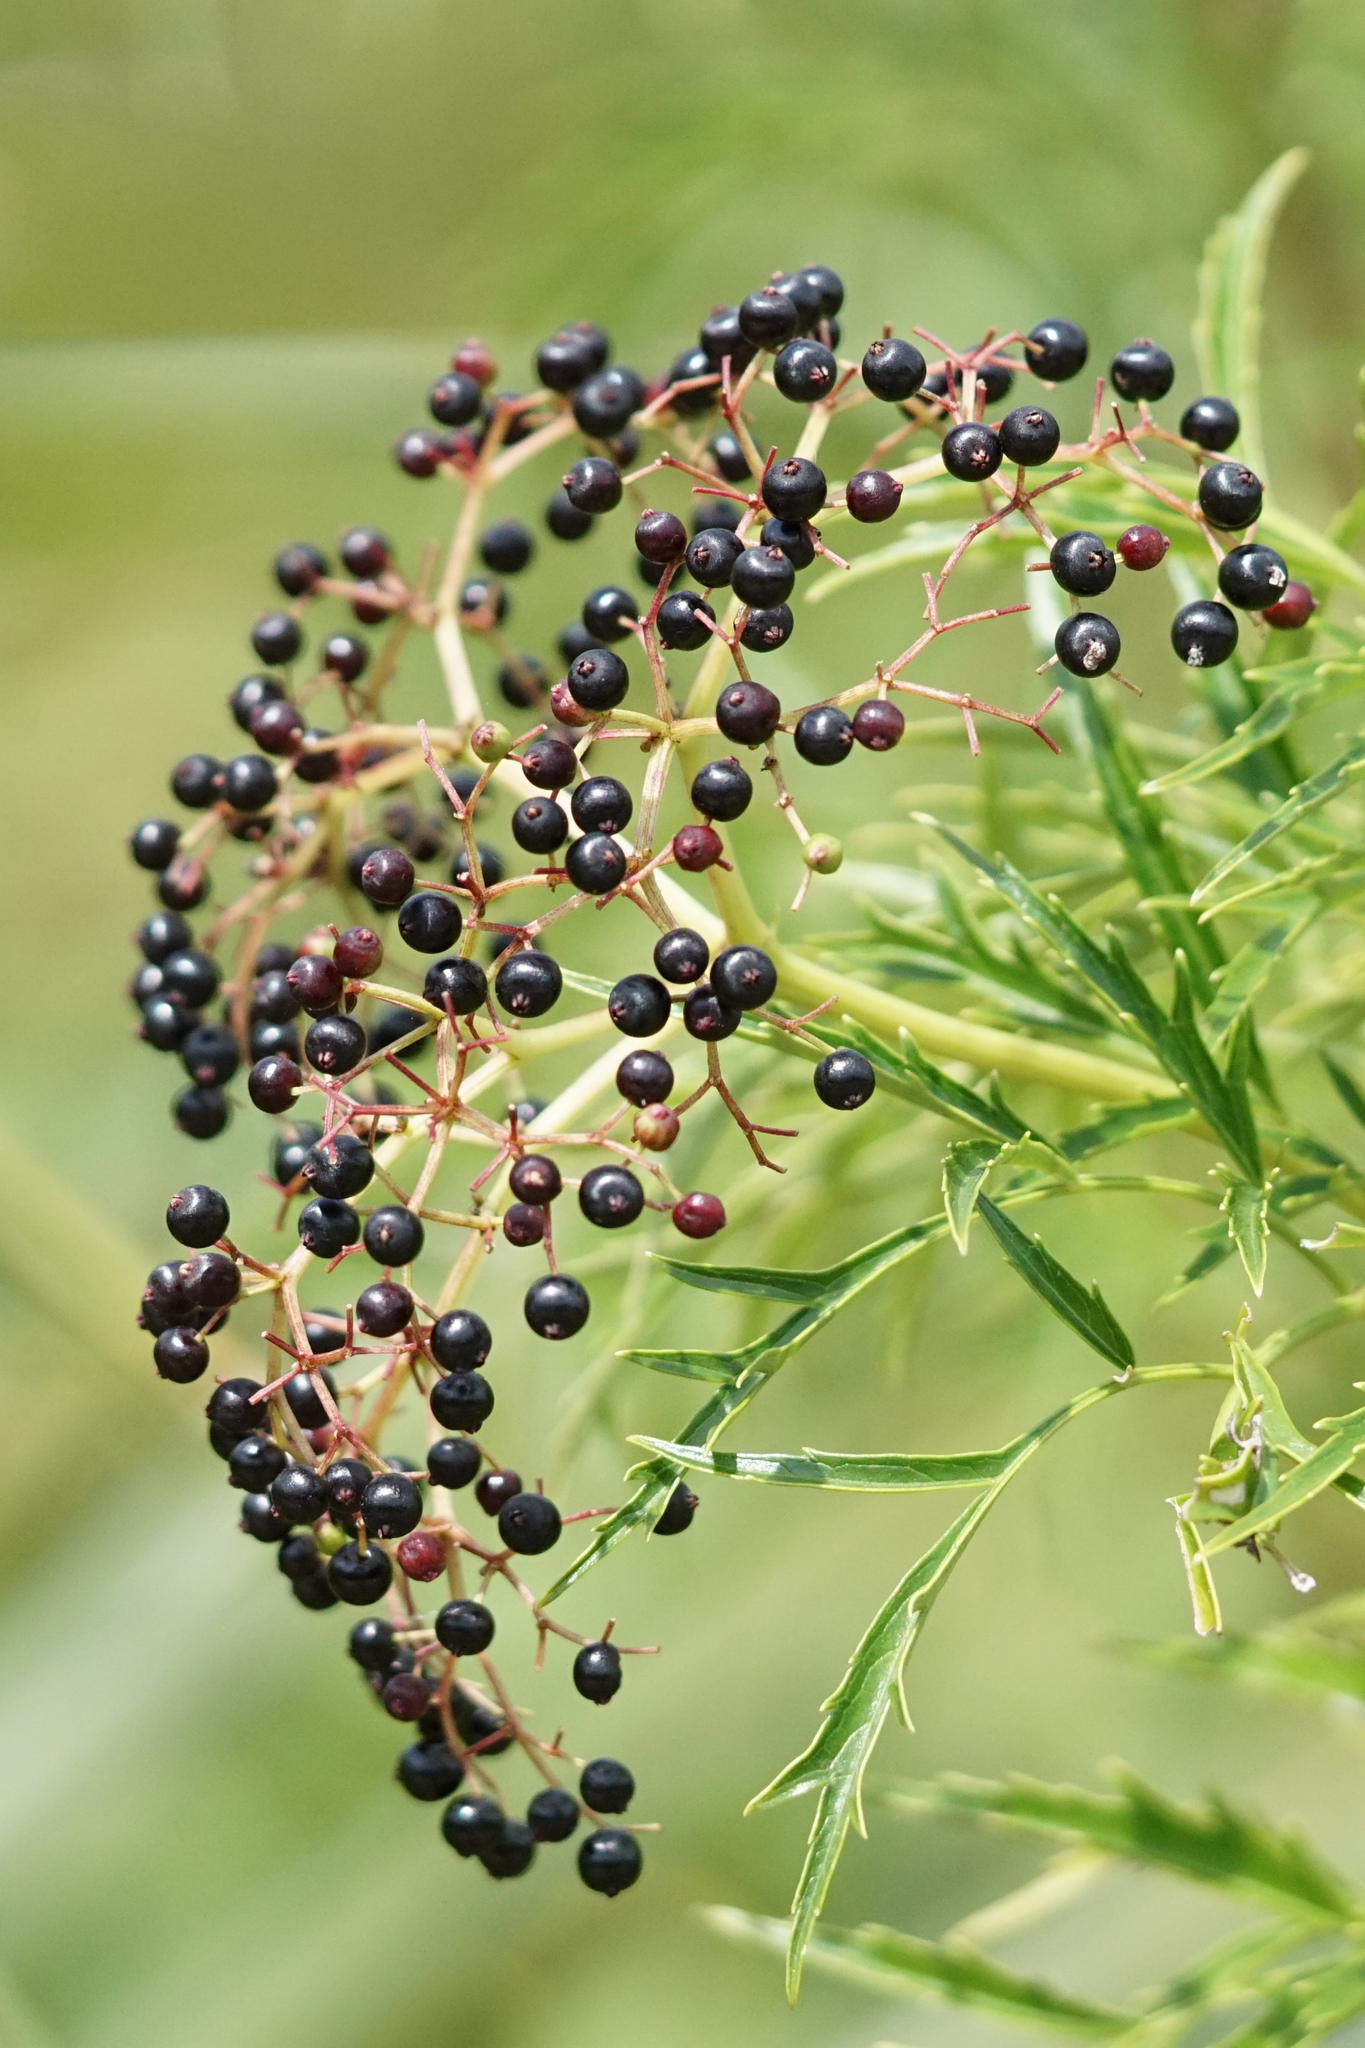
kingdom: Plantae
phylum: Tracheophyta
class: Magnoliopsida
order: Dipsacales
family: Viburnaceae
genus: Sambucus
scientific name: Sambucus canadensis
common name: American elder
